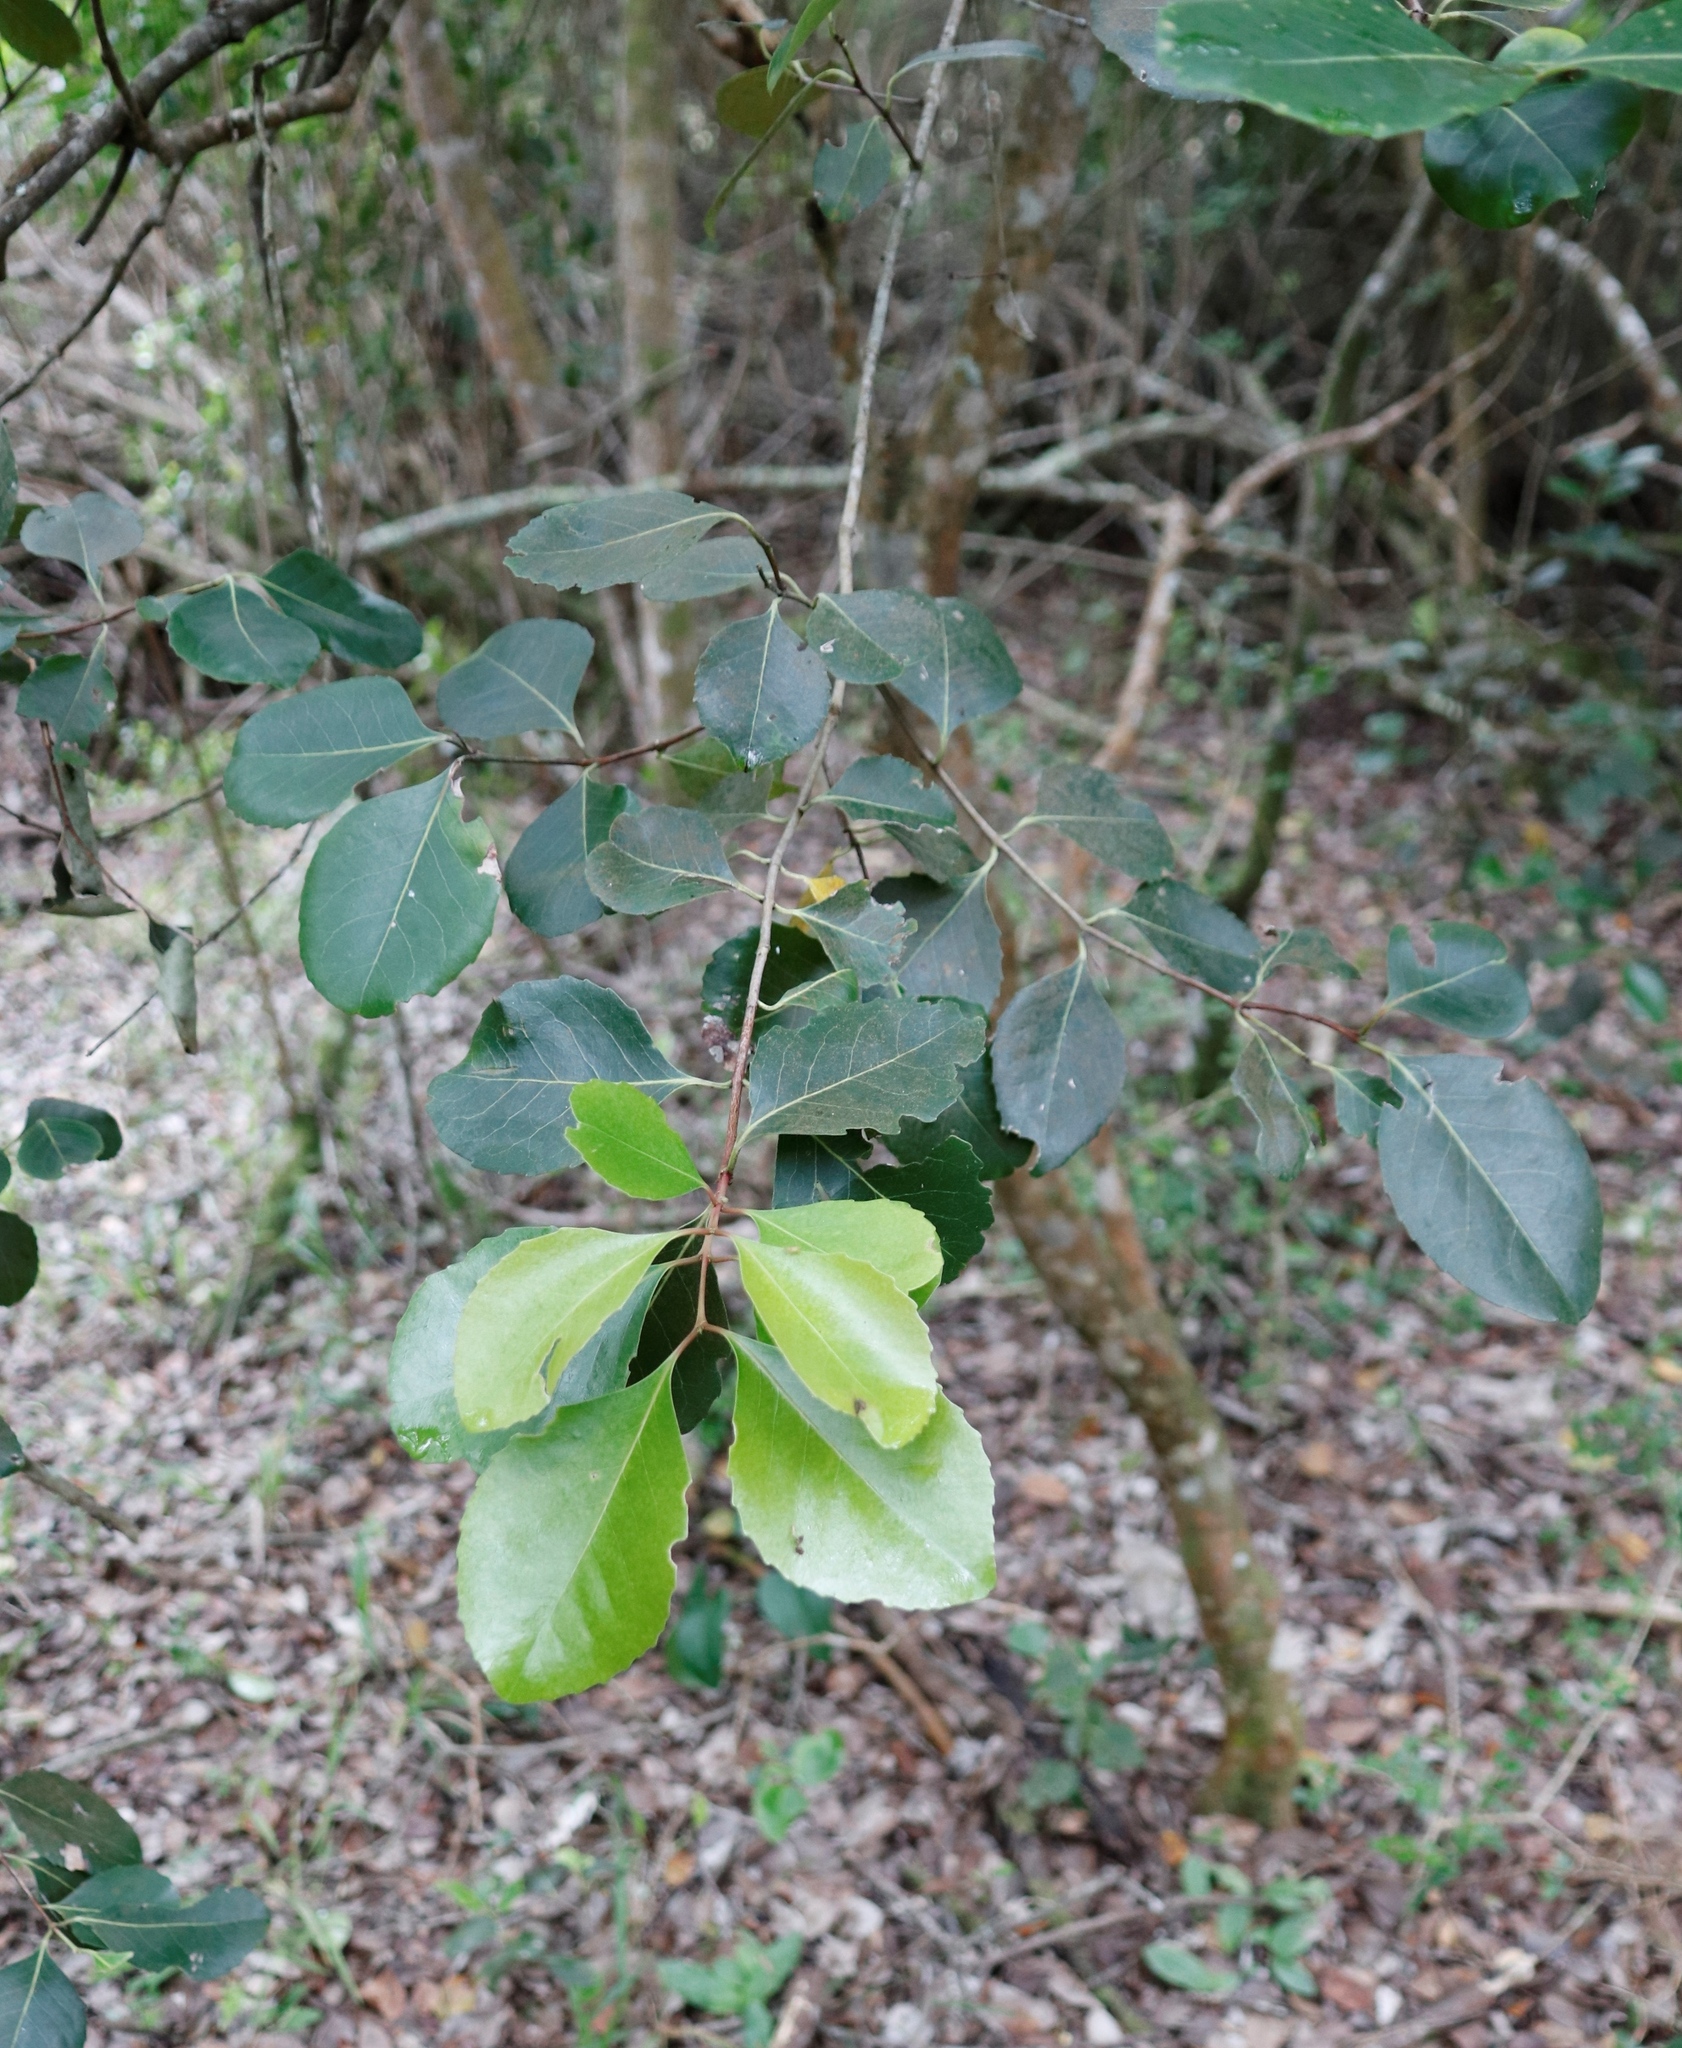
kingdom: Plantae
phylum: Tracheophyta
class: Magnoliopsida
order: Celastrales
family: Celastraceae
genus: Cassine
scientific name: Cassine peragua
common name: Cape saffron
